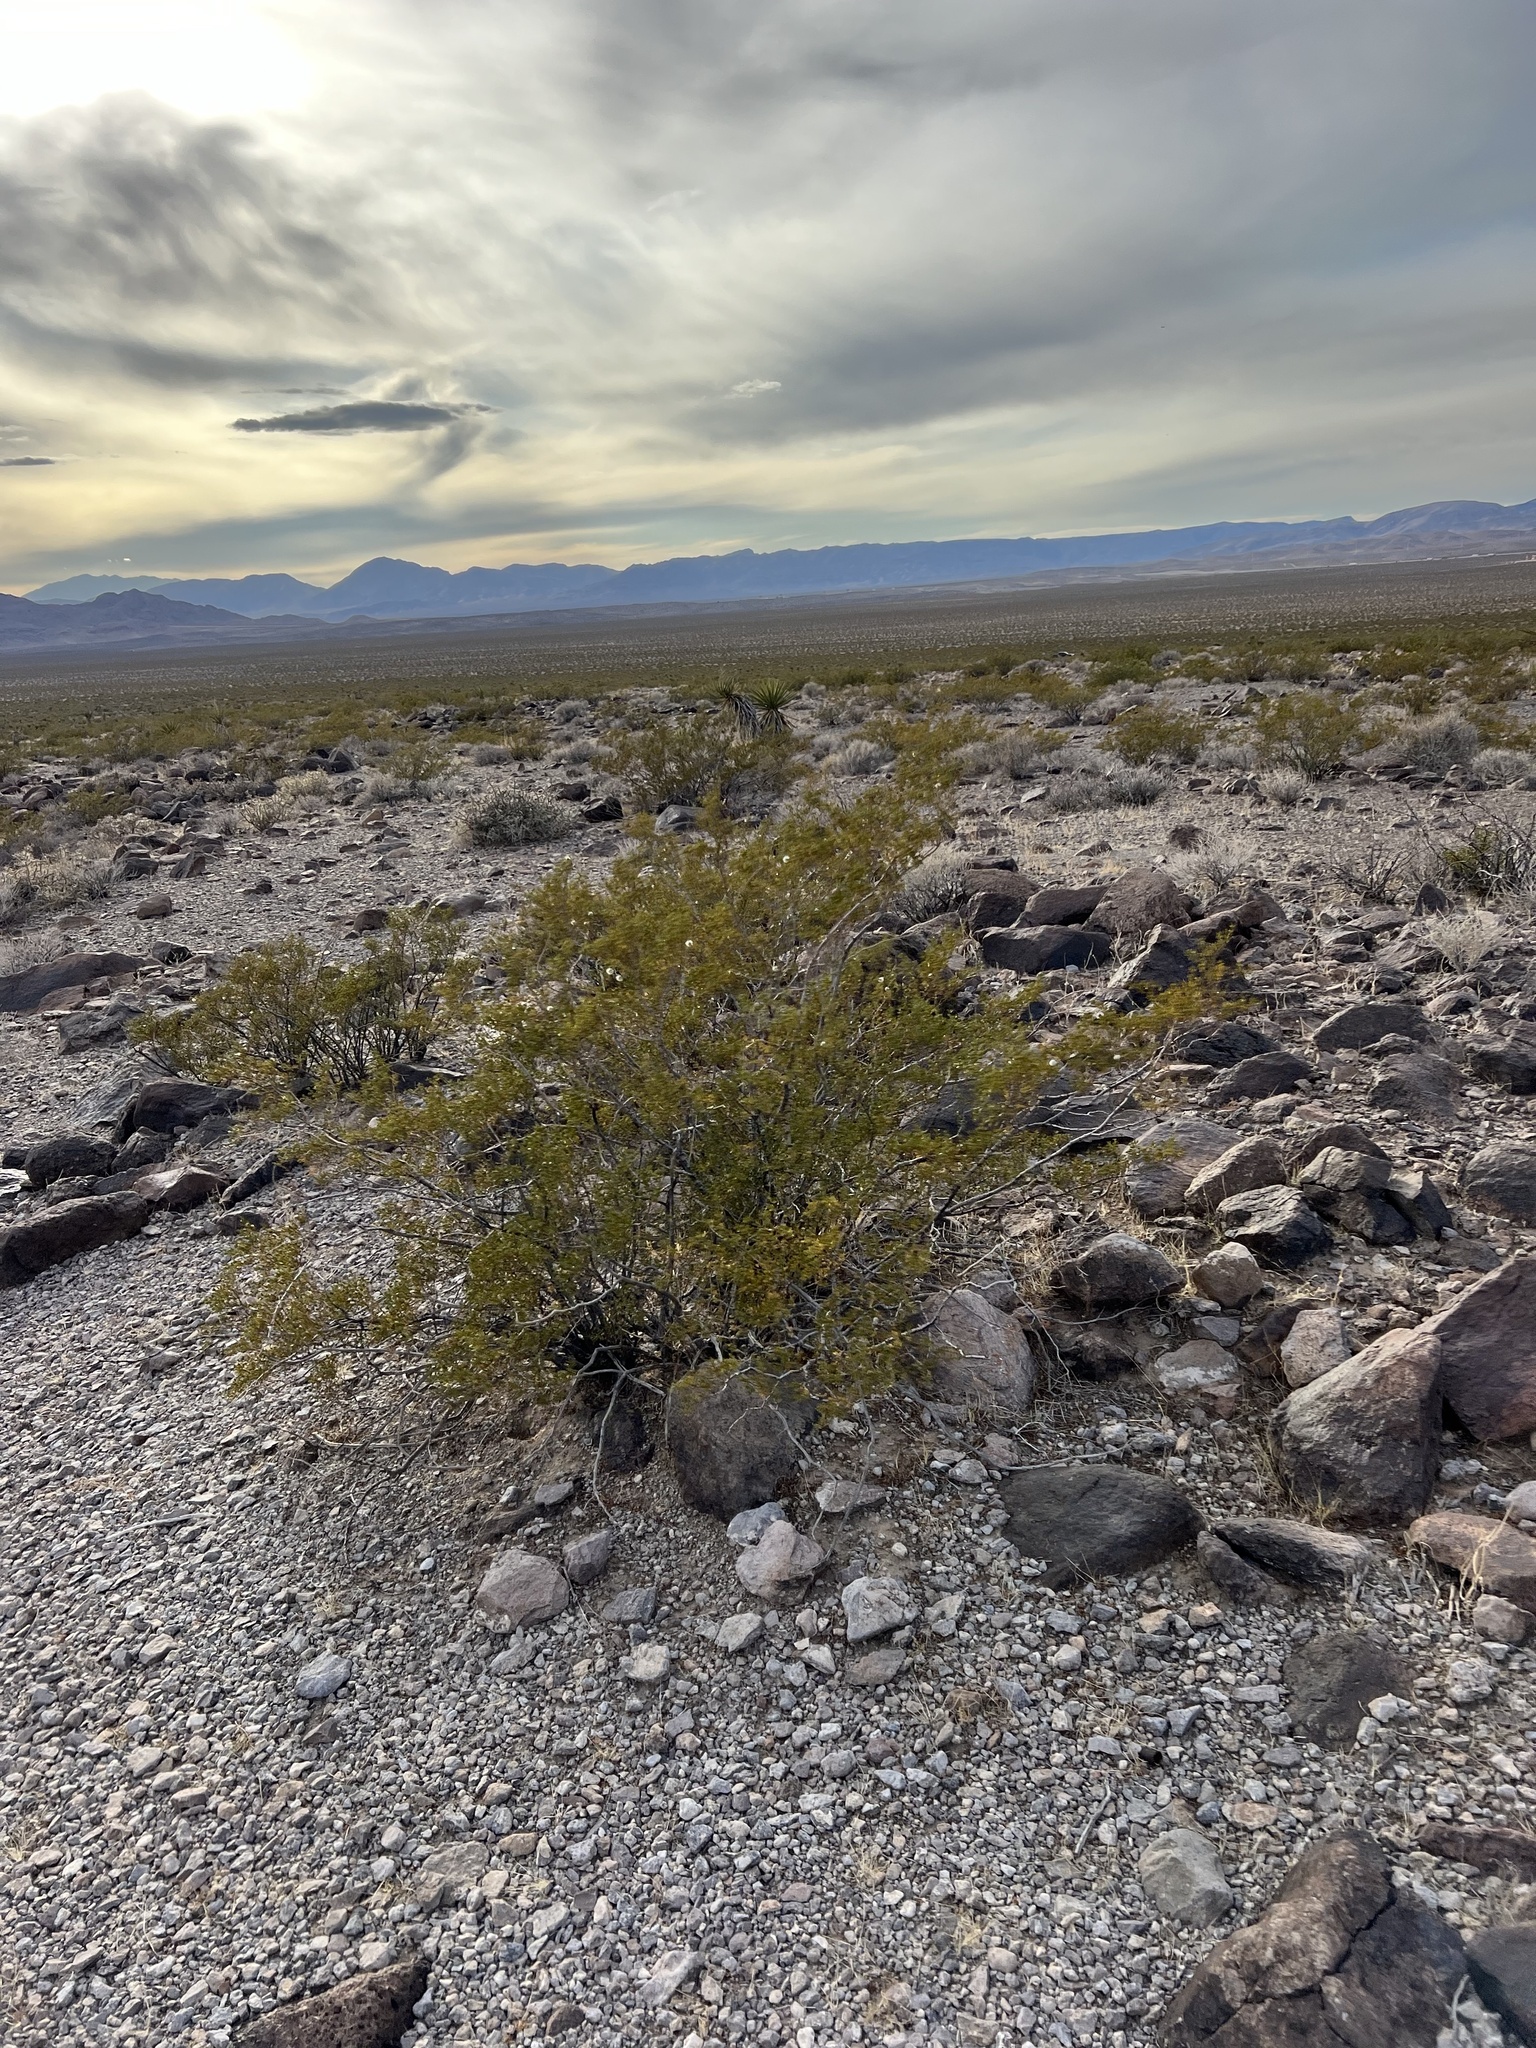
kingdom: Plantae
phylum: Tracheophyta
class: Magnoliopsida
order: Zygophyllales
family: Zygophyllaceae
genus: Larrea
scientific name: Larrea tridentata
